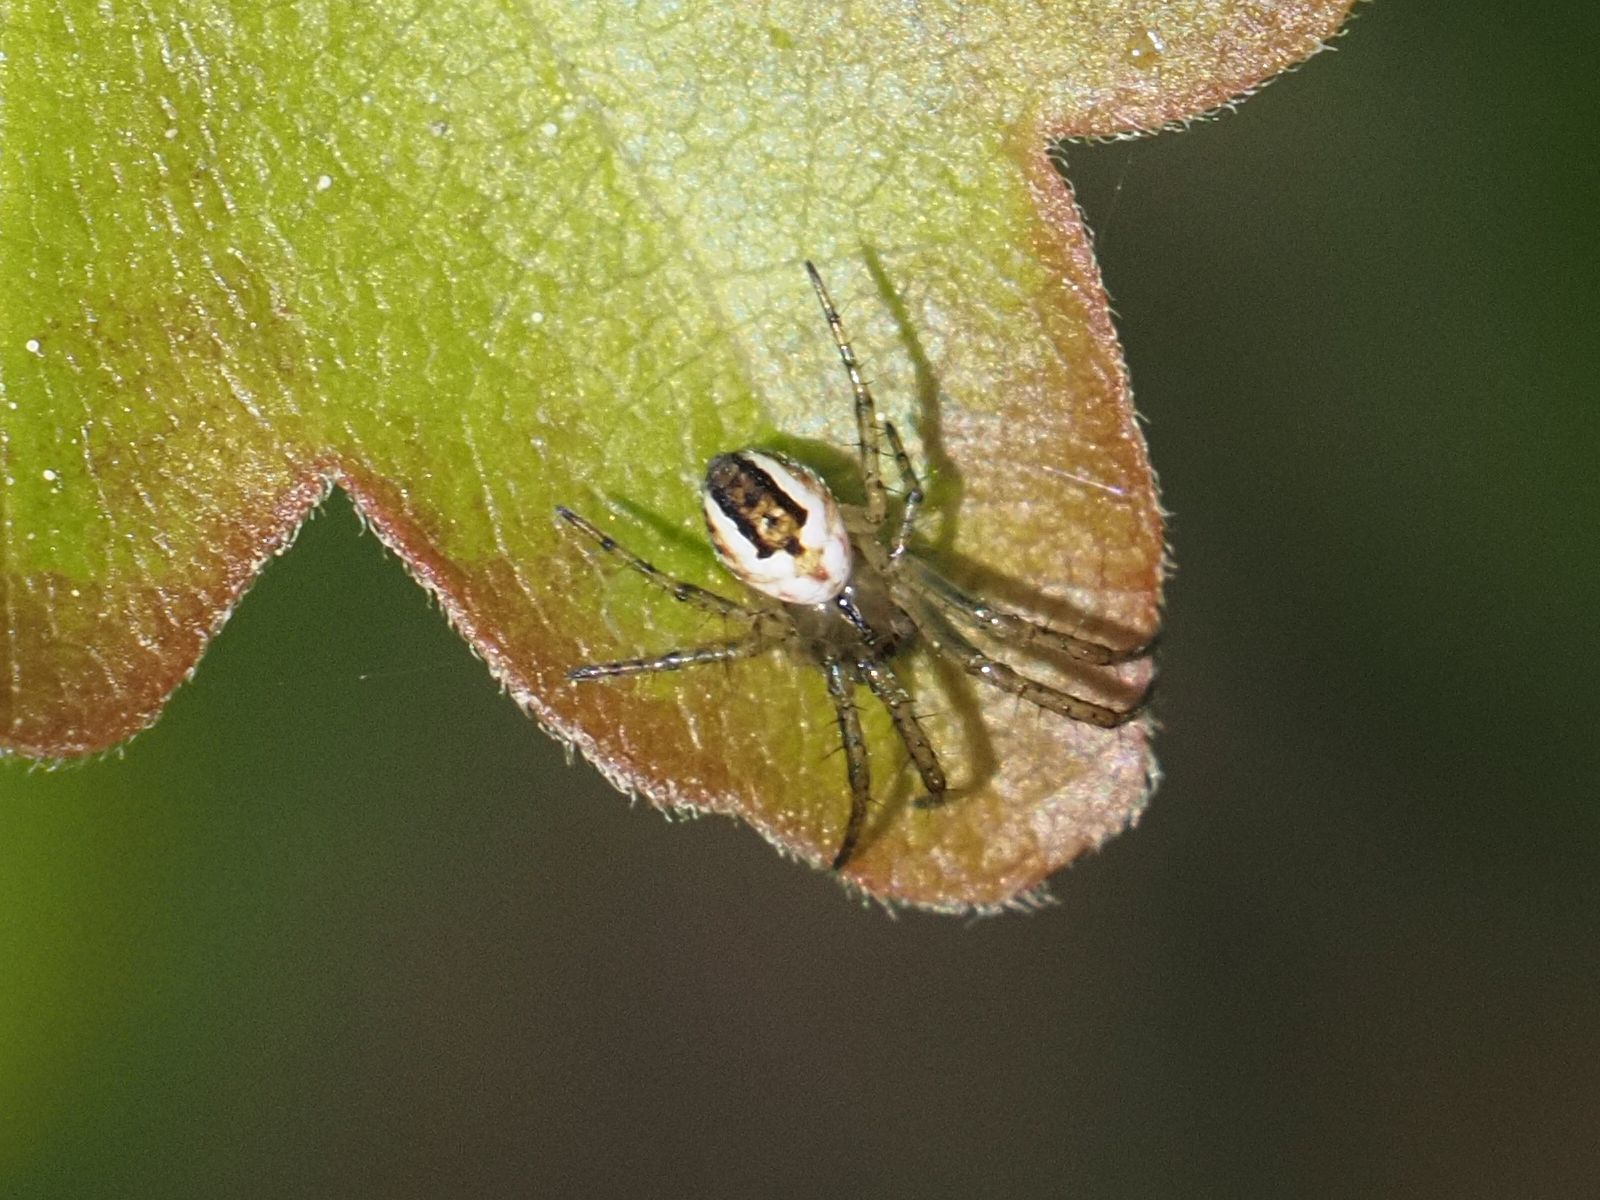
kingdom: Animalia
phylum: Arthropoda
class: Arachnida
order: Araneae
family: Araneidae
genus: Mangora
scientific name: Mangora acalypha
